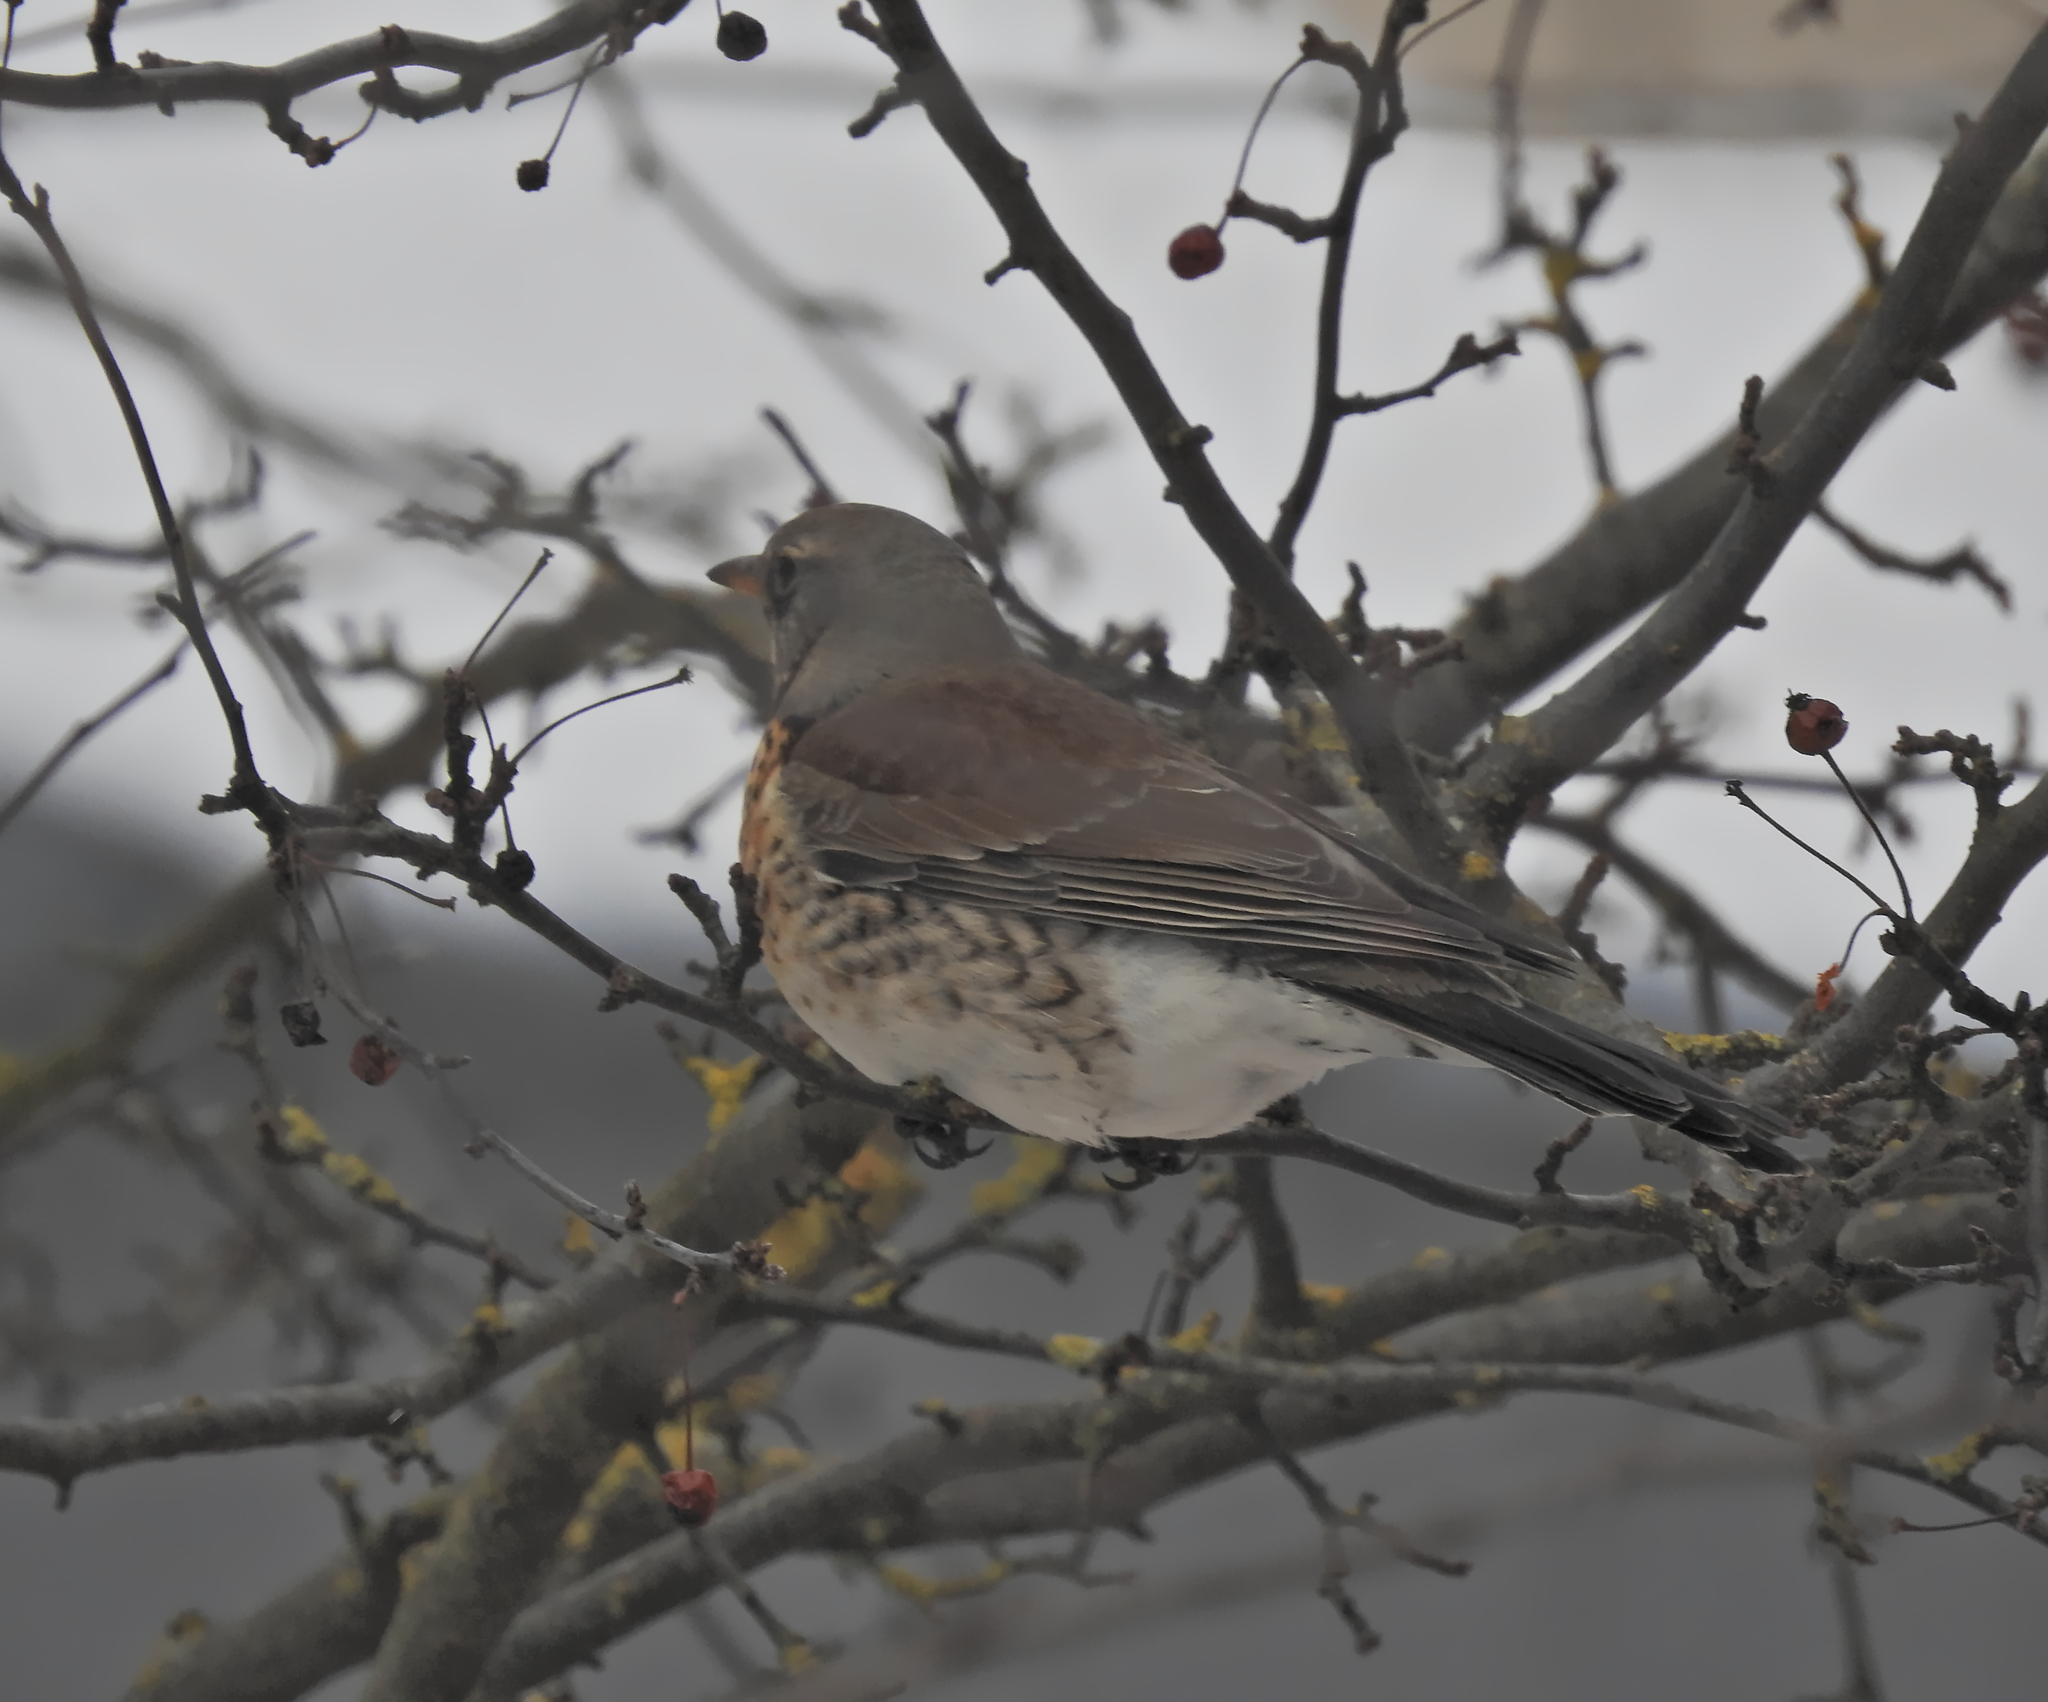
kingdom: Animalia
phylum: Chordata
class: Aves
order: Passeriformes
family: Turdidae
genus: Turdus
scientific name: Turdus pilaris
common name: Fieldfare
